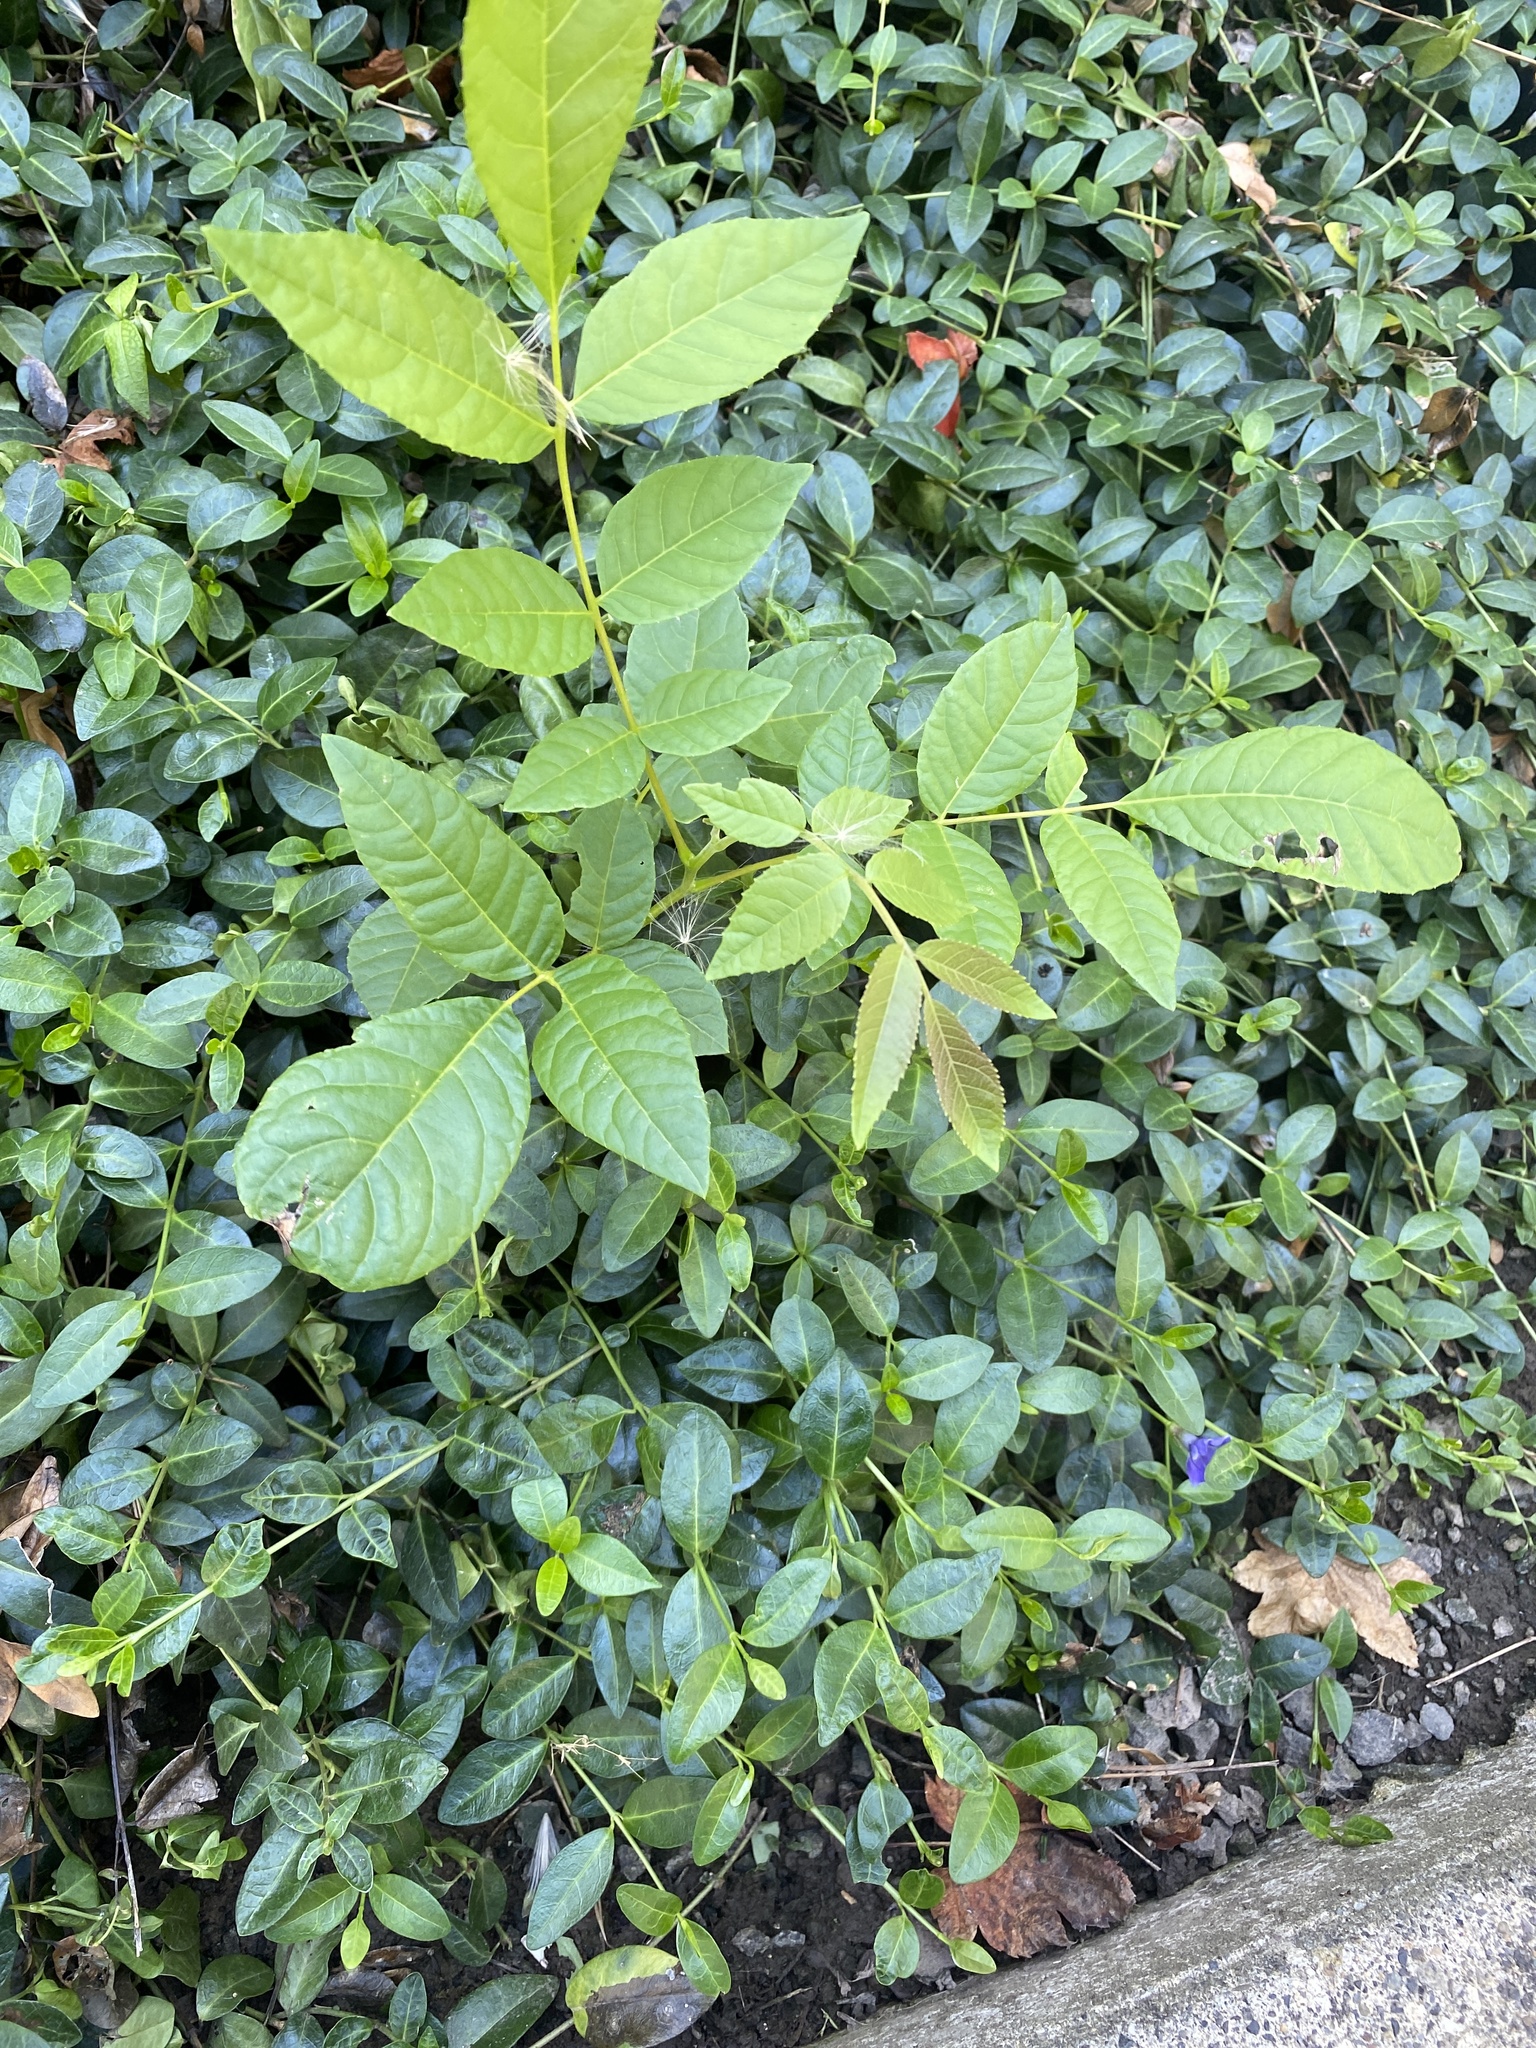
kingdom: Plantae
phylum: Tracheophyta
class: Magnoliopsida
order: Lamiales
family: Oleaceae
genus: Fraxinus
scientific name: Fraxinus latifolia
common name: Oregon ash
